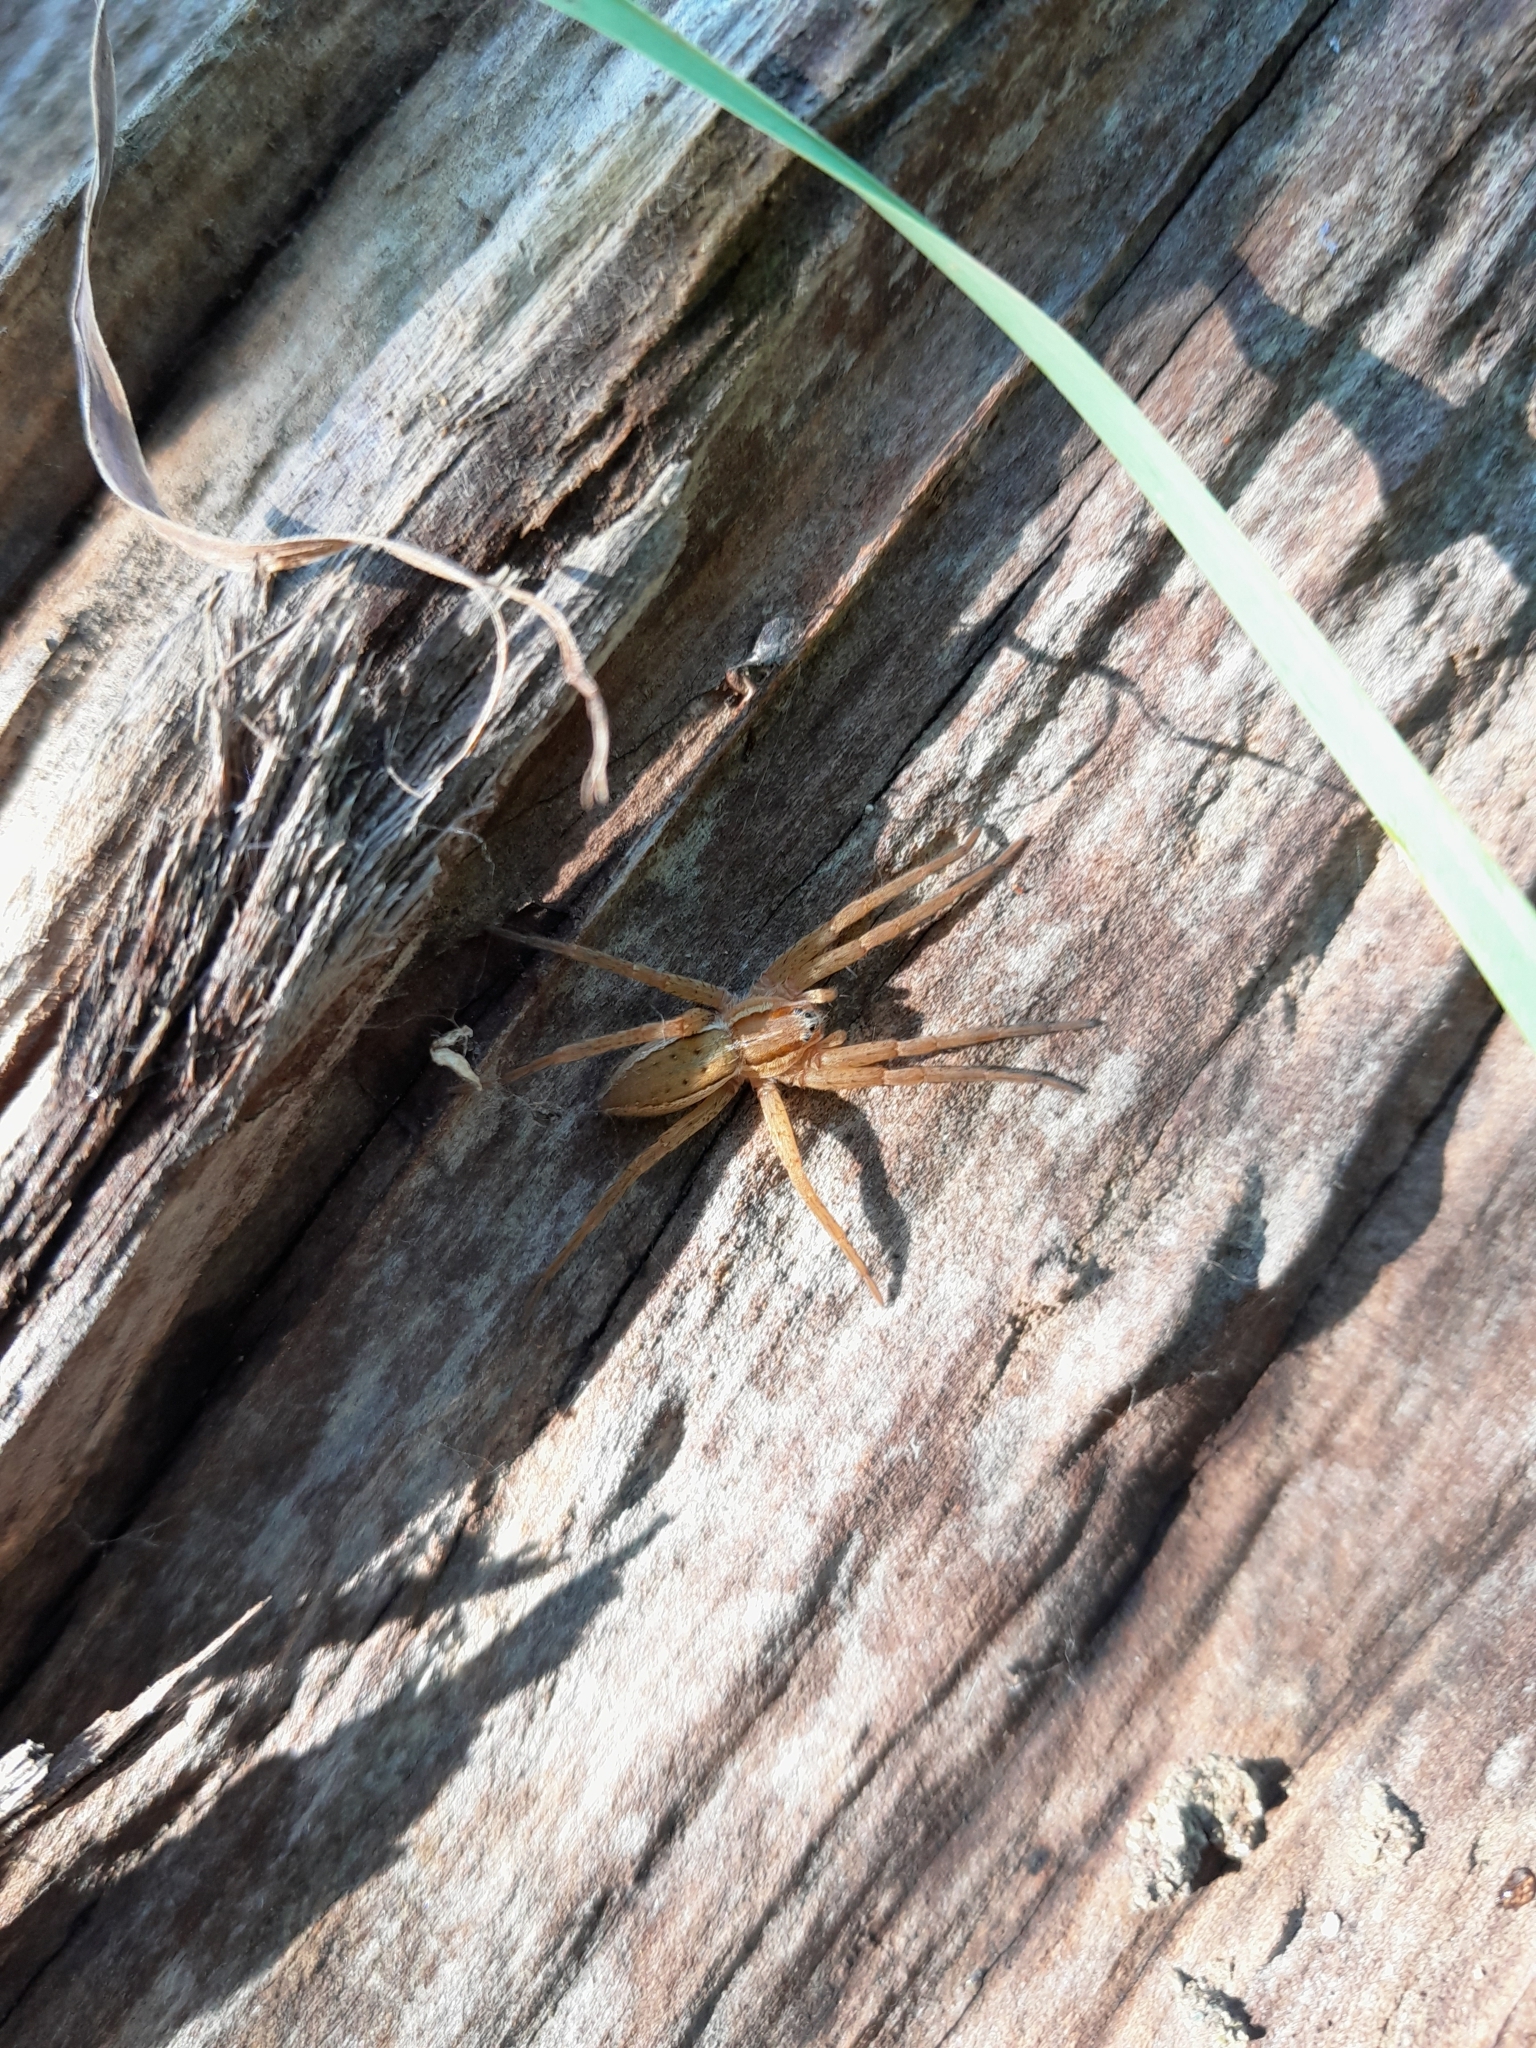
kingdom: Animalia
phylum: Arthropoda
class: Arachnida
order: Araneae
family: Pisauridae
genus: Dolomedes
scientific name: Dolomedes minor
